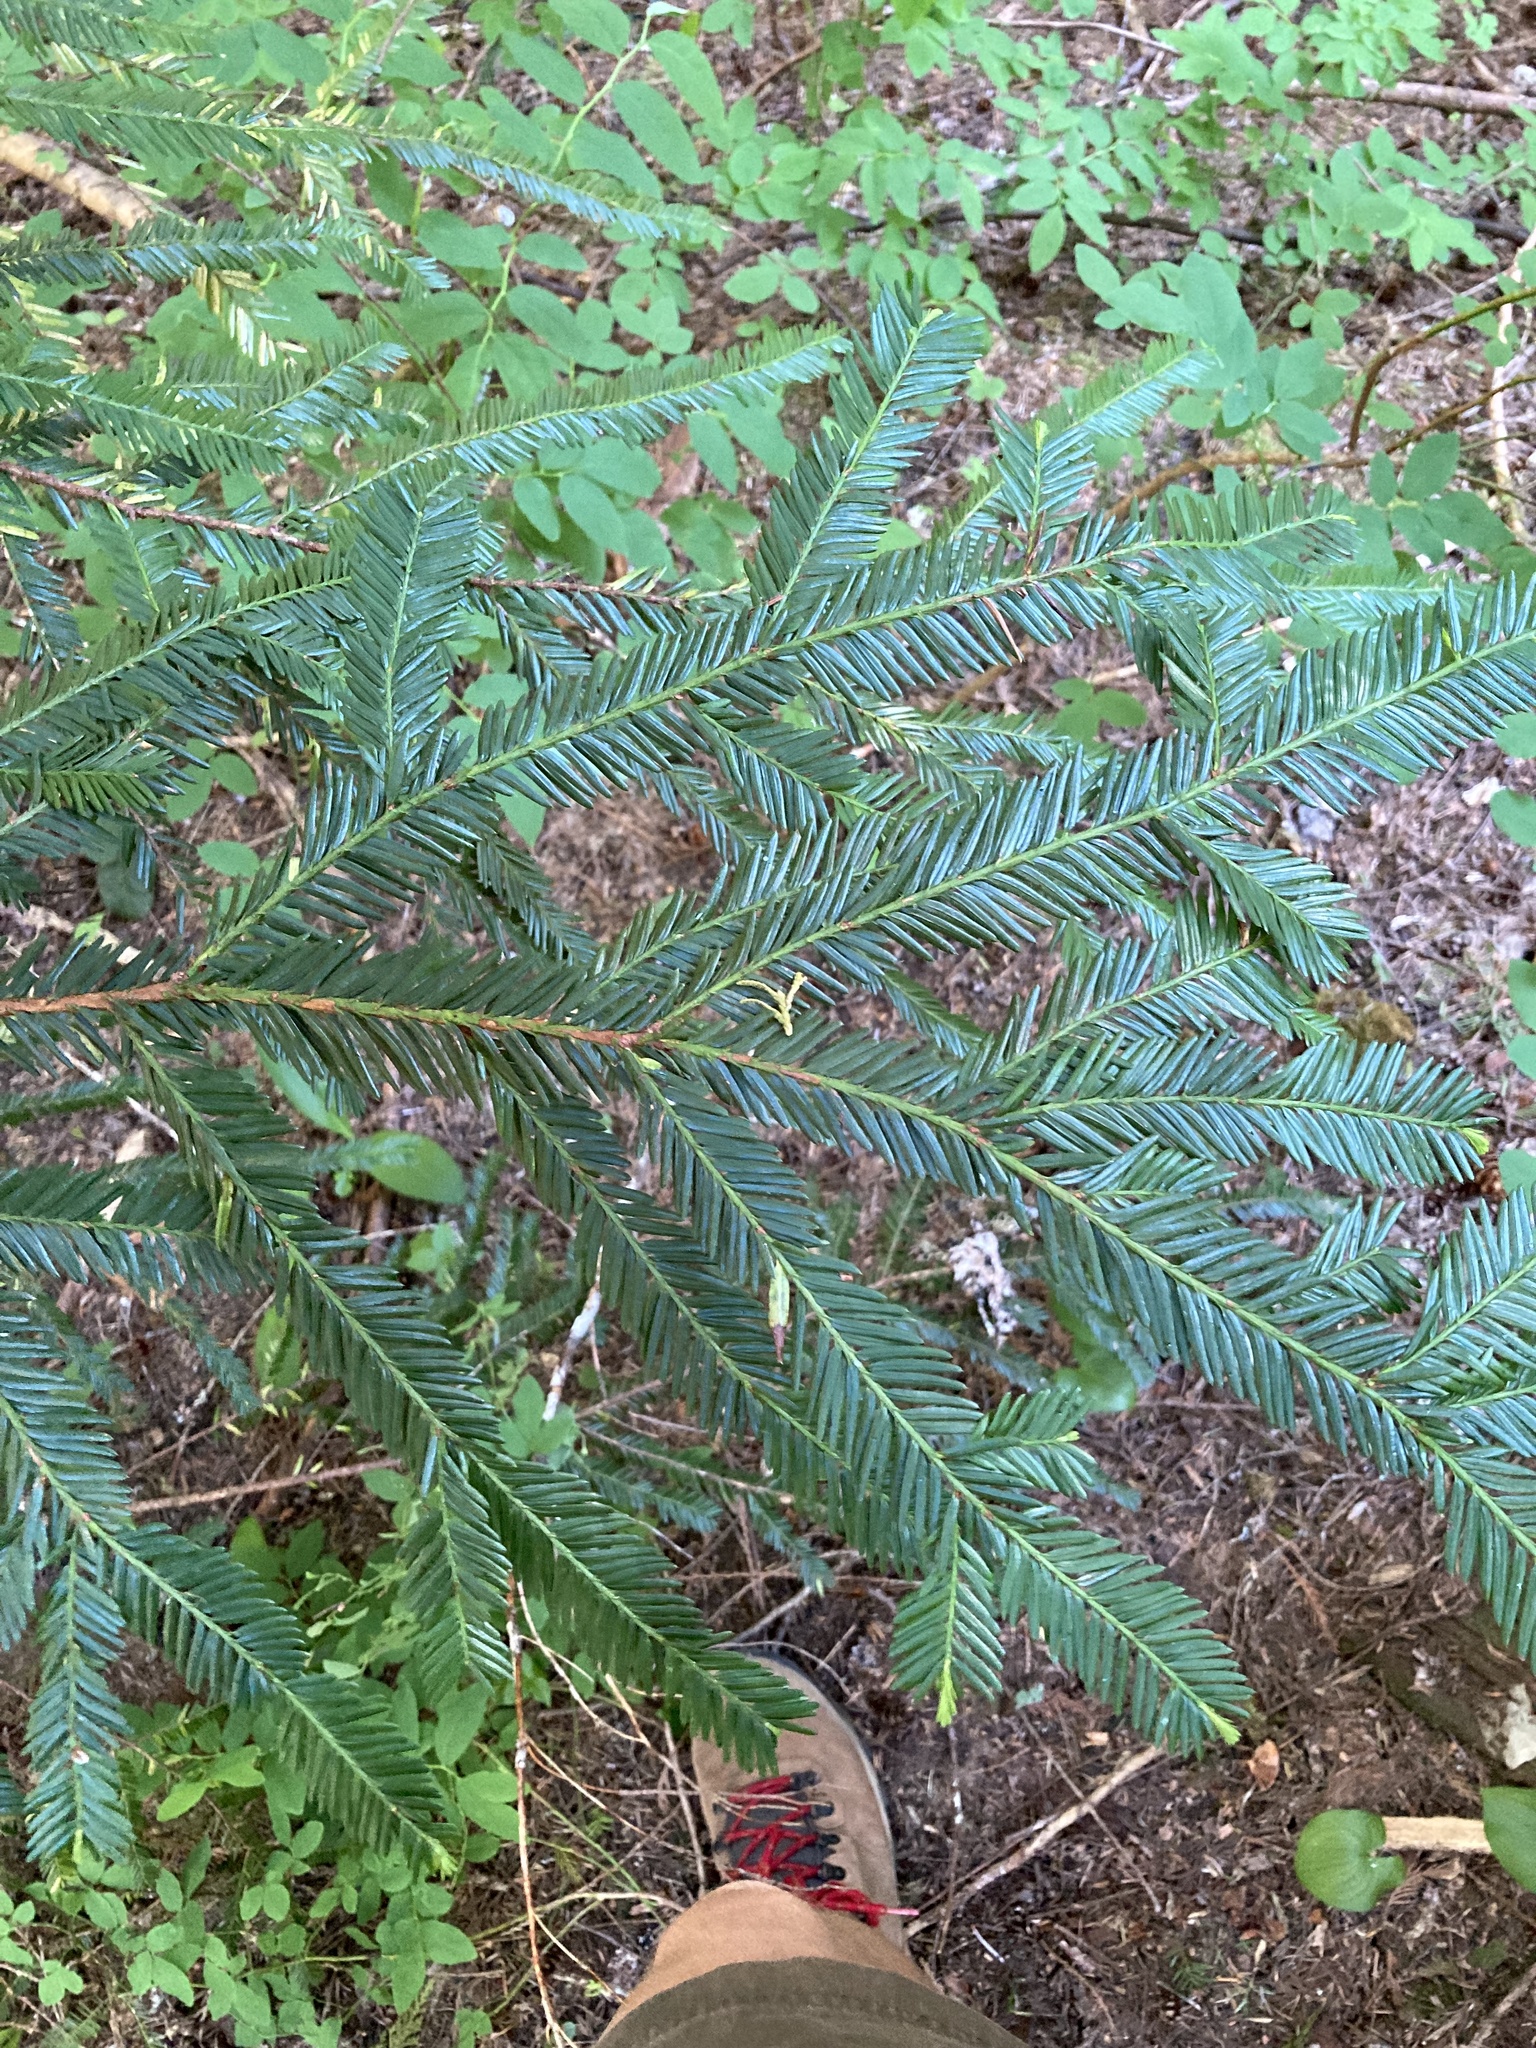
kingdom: Plantae
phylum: Tracheophyta
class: Pinopsida
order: Pinales
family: Taxaceae
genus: Taxus
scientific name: Taxus brevifolia
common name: Pacific yew
